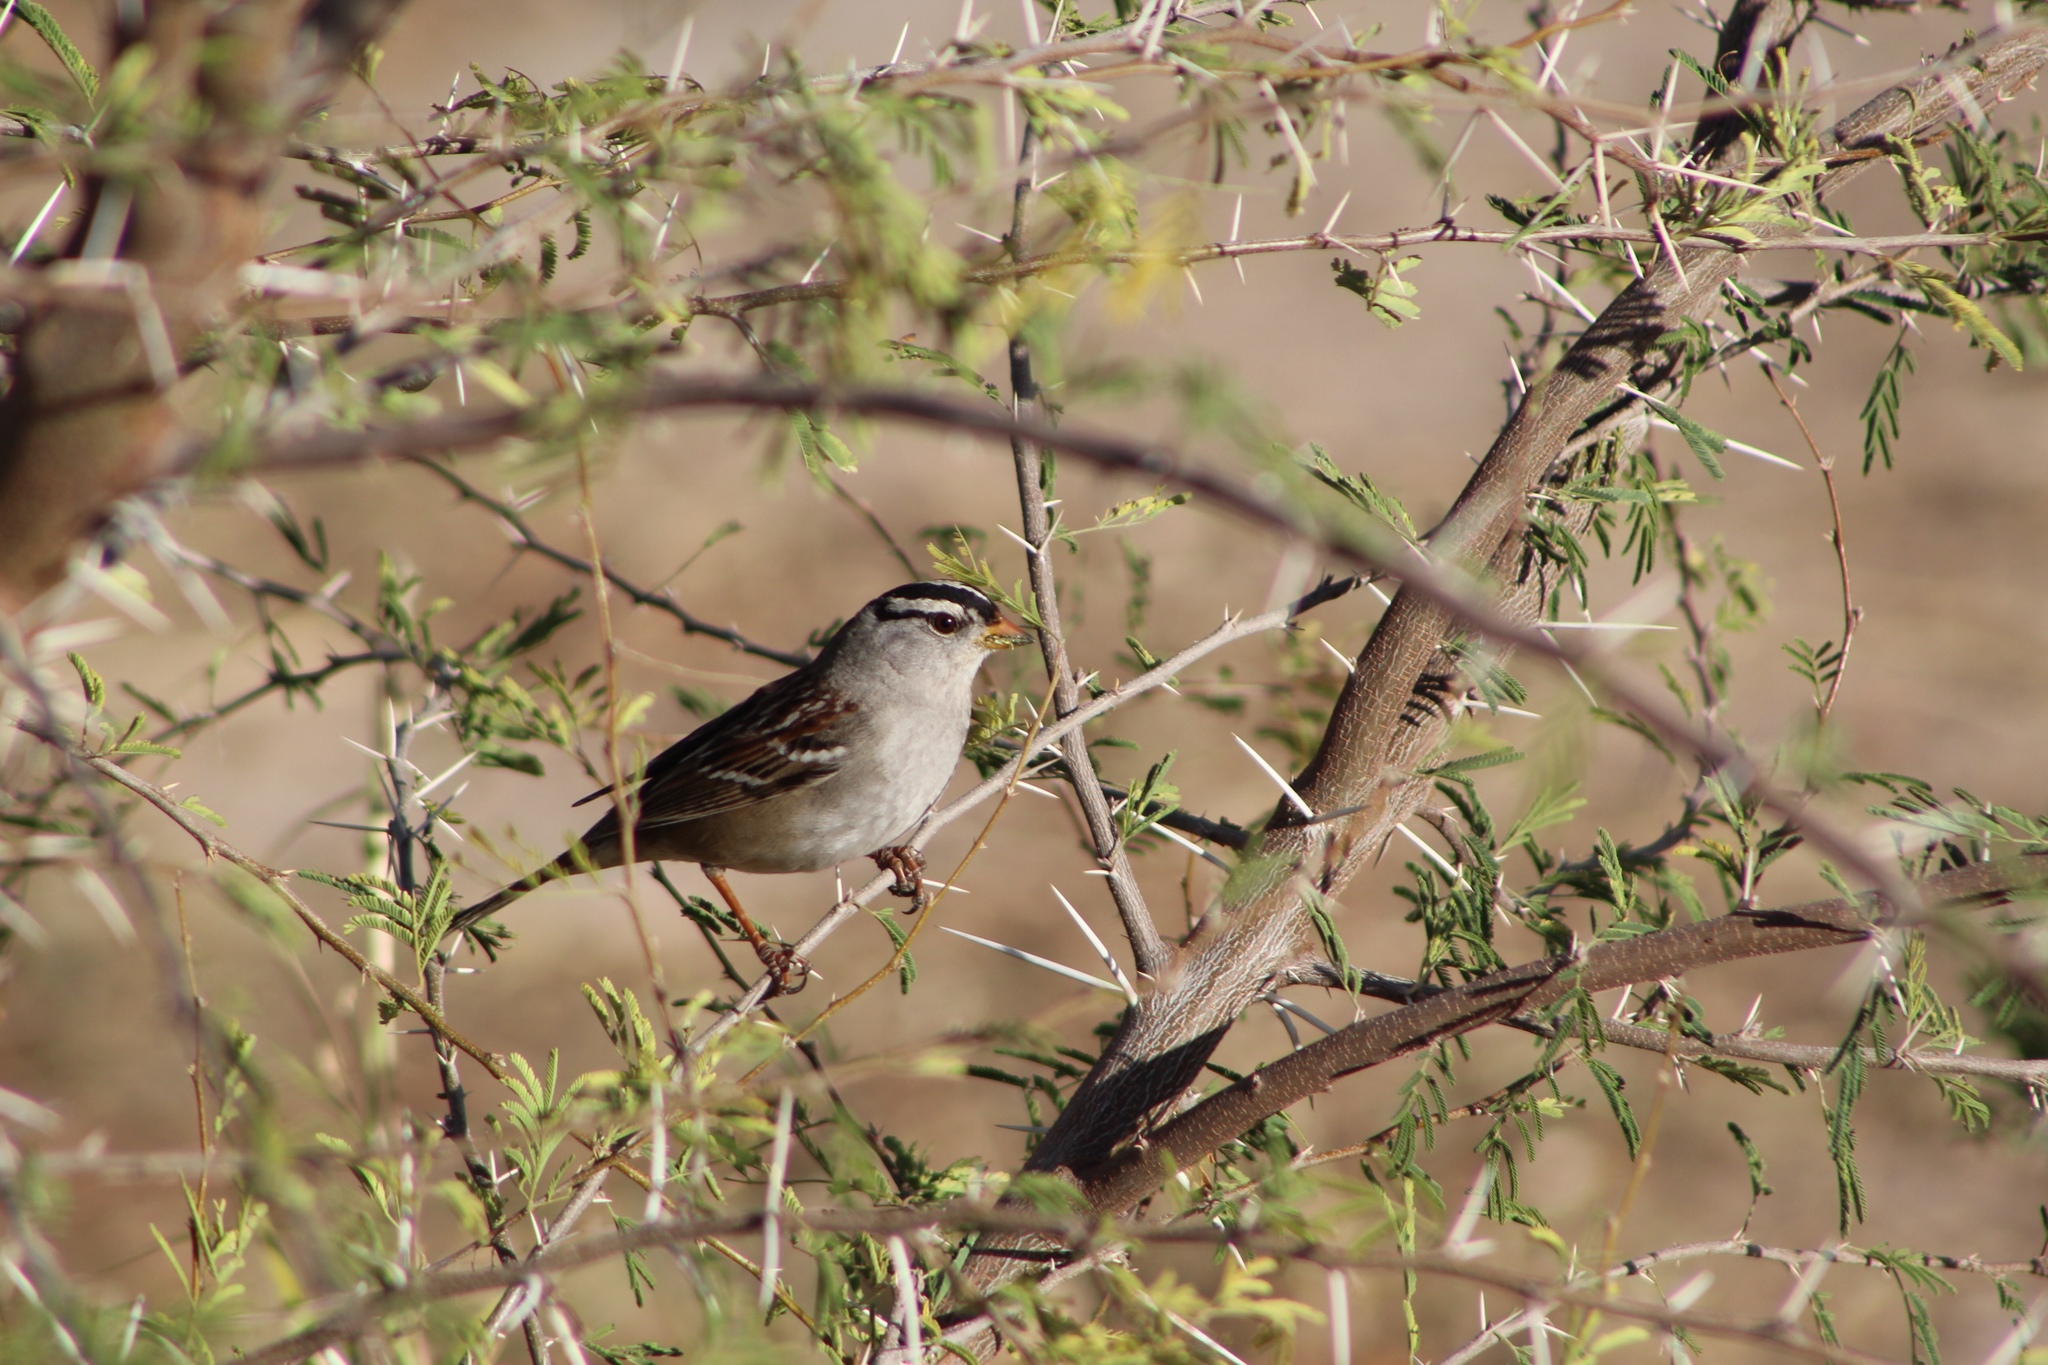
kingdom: Animalia
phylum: Chordata
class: Aves
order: Passeriformes
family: Passerellidae
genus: Zonotrichia
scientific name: Zonotrichia leucophrys
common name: White-crowned sparrow
